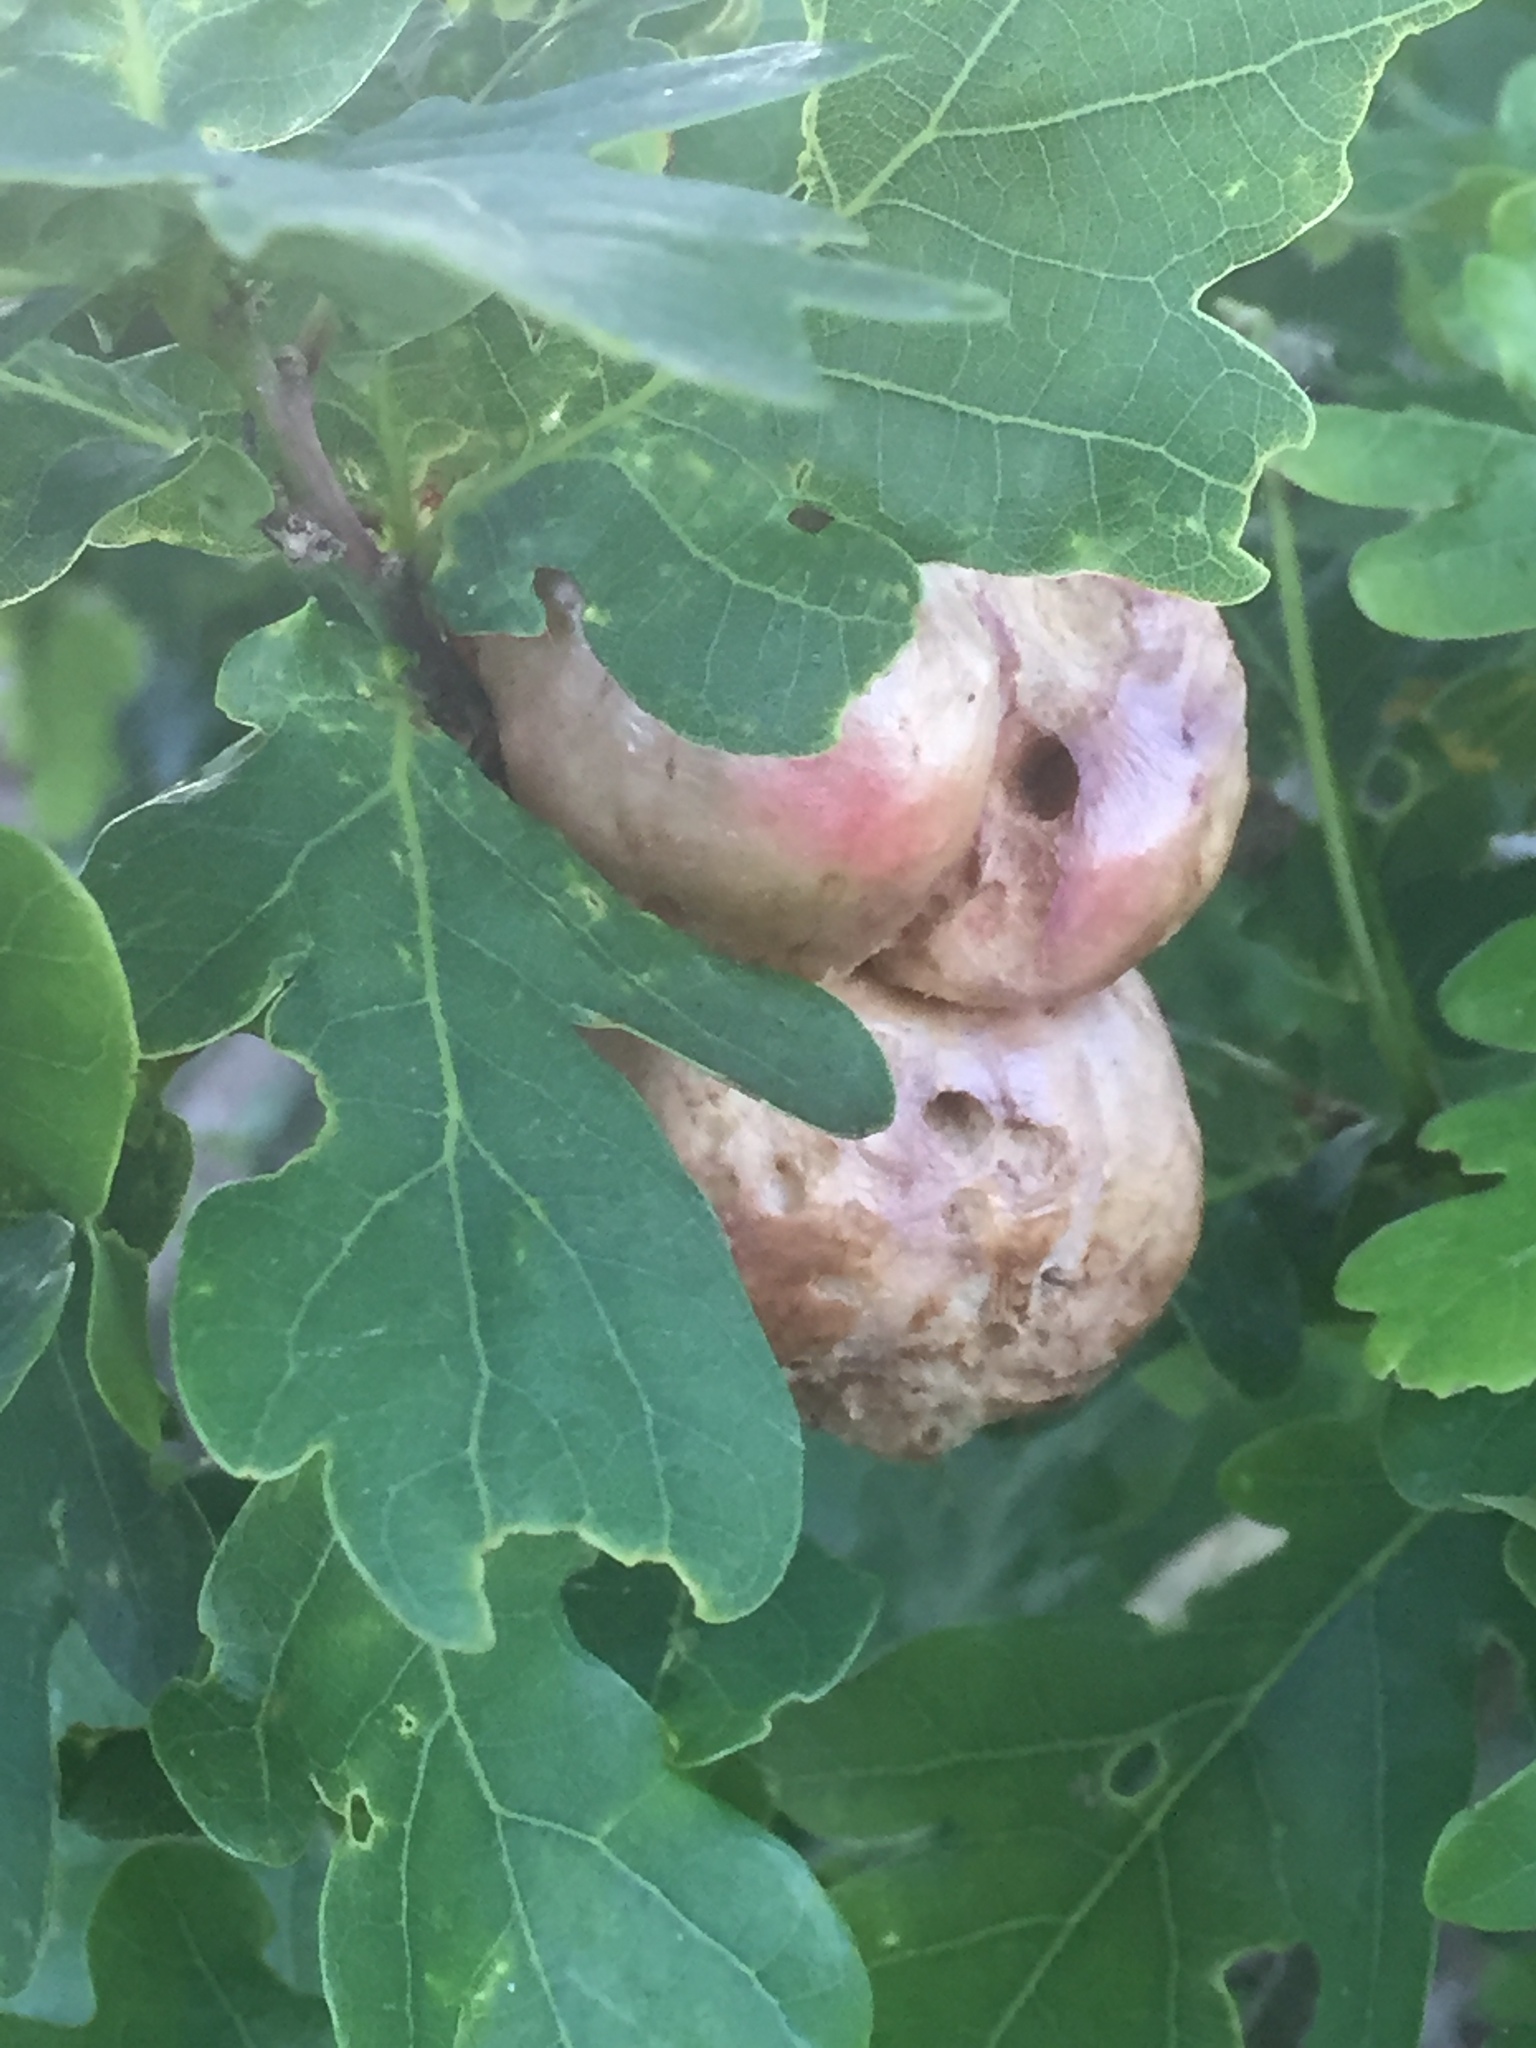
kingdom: Animalia
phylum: Arthropoda
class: Insecta
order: Hymenoptera
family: Cynipidae
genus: Biorhiza
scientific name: Biorhiza pallida
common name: Oak apple
